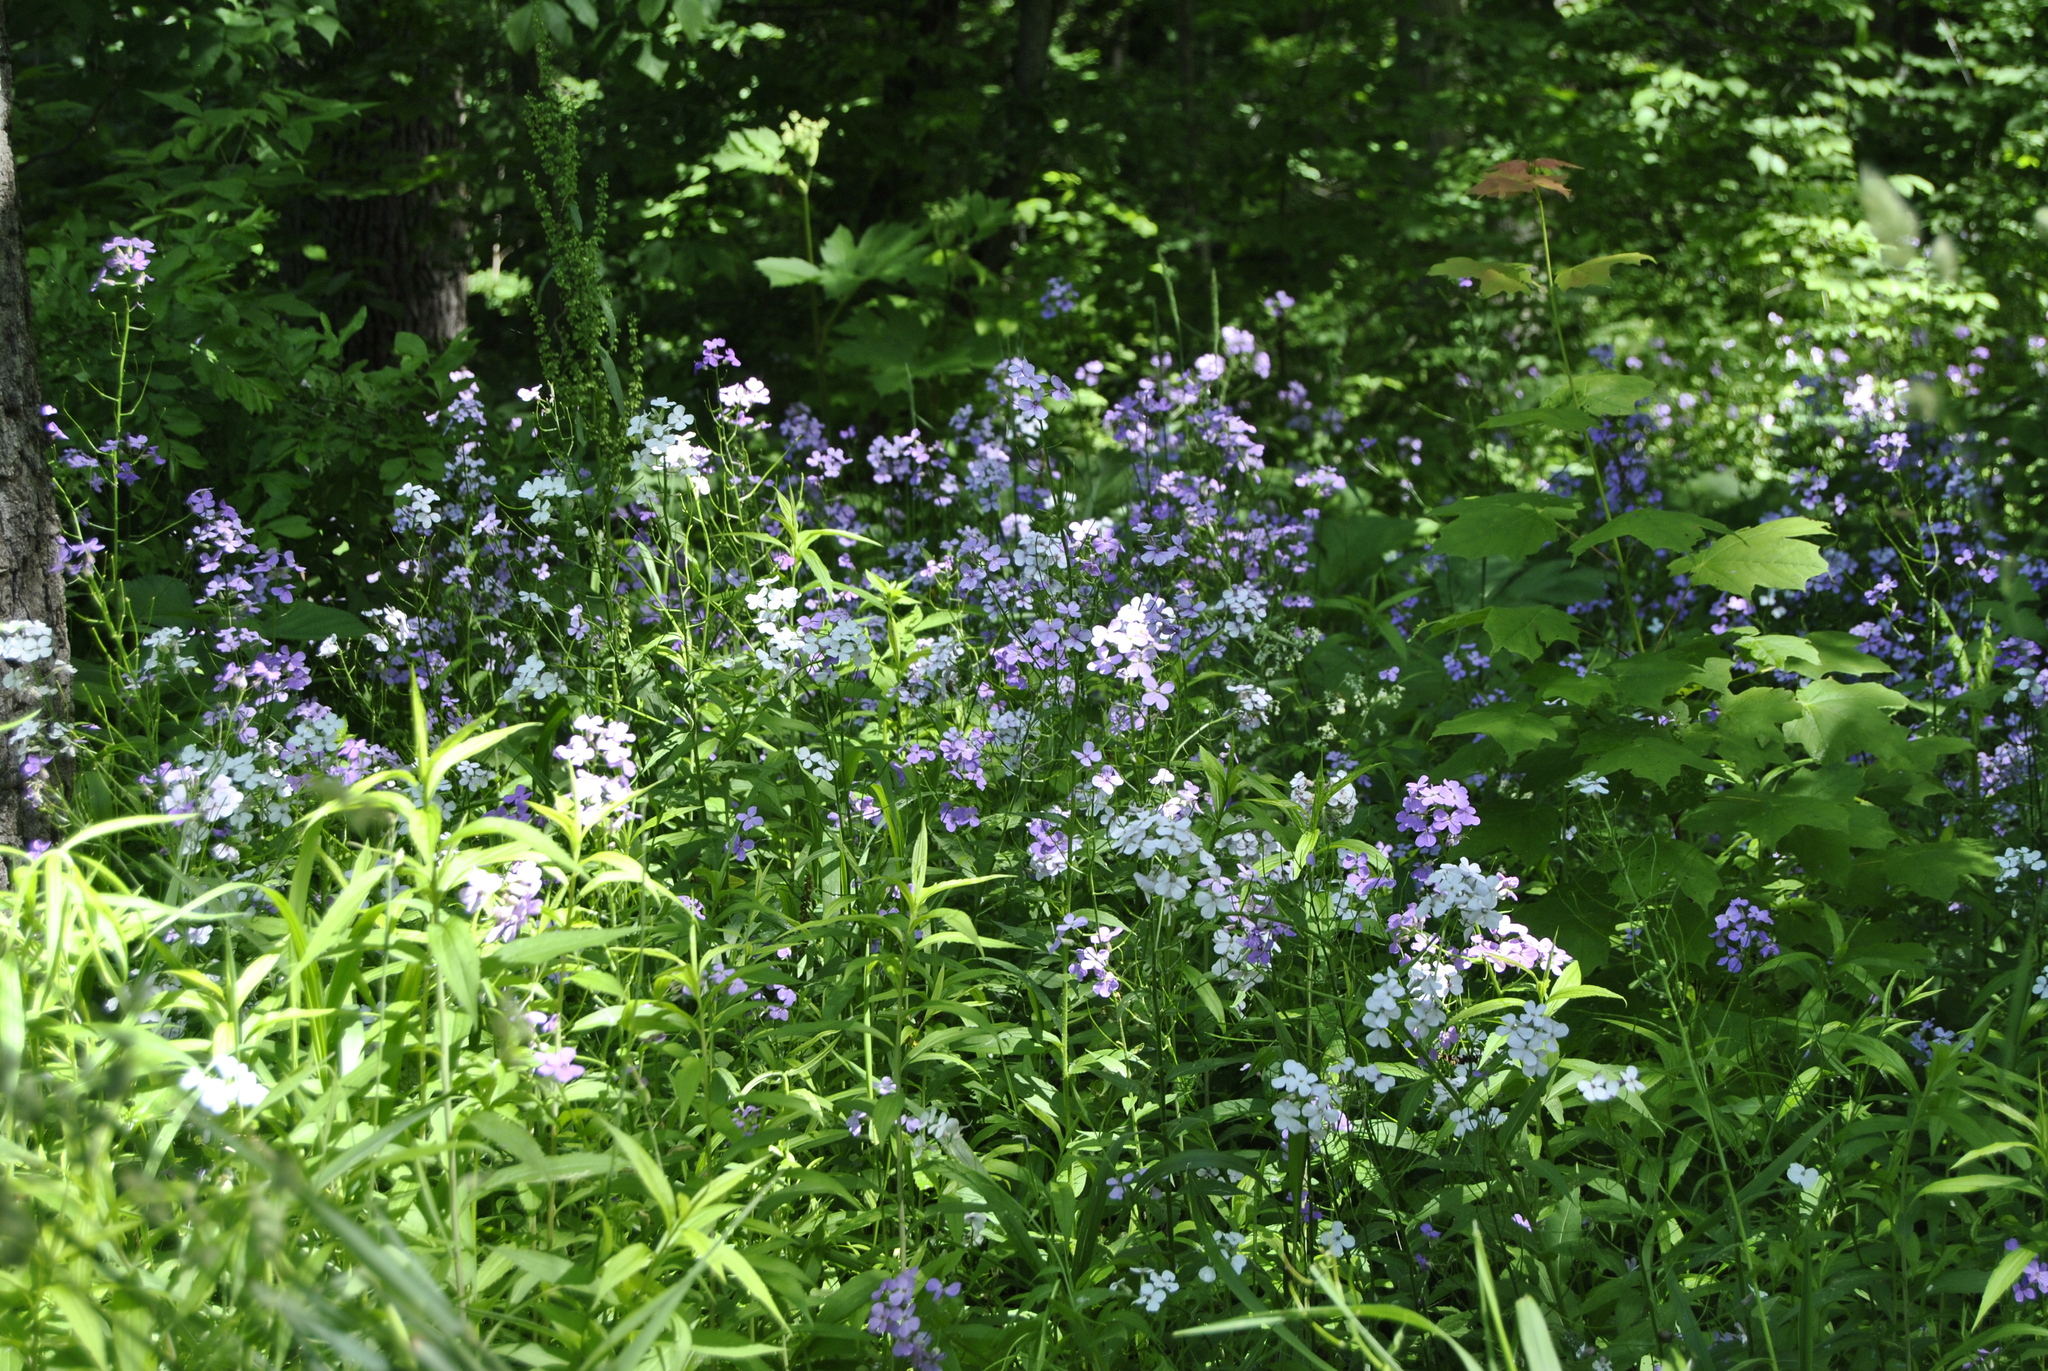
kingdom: Plantae
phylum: Tracheophyta
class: Magnoliopsida
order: Brassicales
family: Brassicaceae
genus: Hesperis
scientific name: Hesperis matronalis
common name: Dame's-violet
